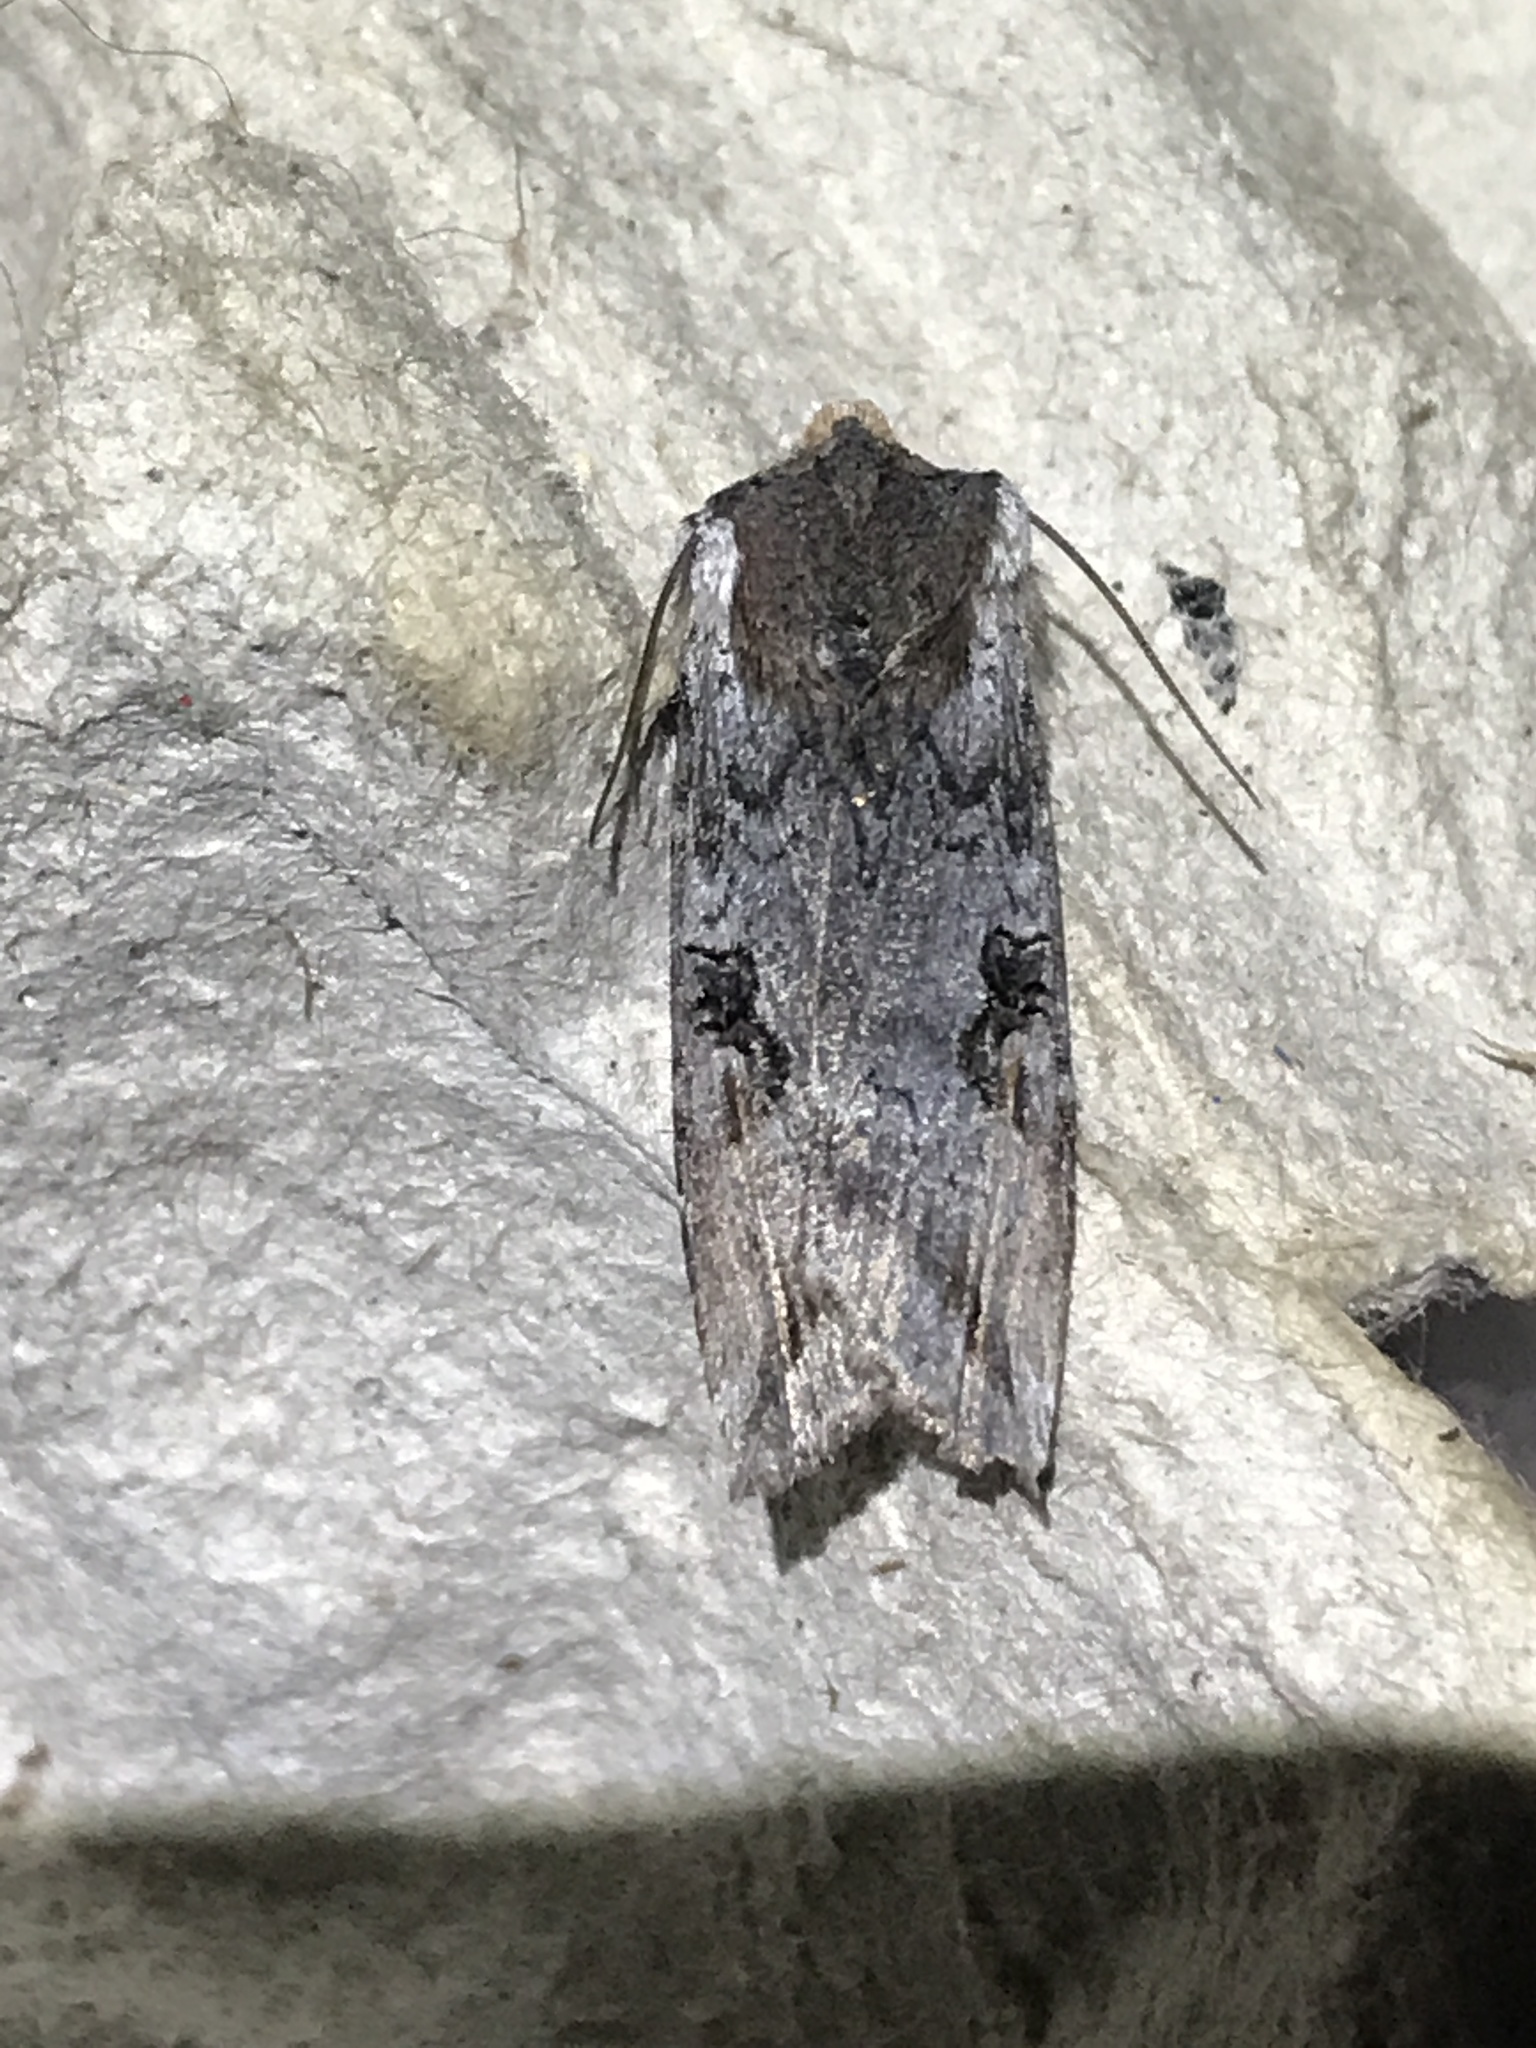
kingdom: Animalia
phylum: Arthropoda
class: Insecta
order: Lepidoptera
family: Noctuidae
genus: Xylena
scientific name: Xylena thoracica
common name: Acadian swordgrass moth
